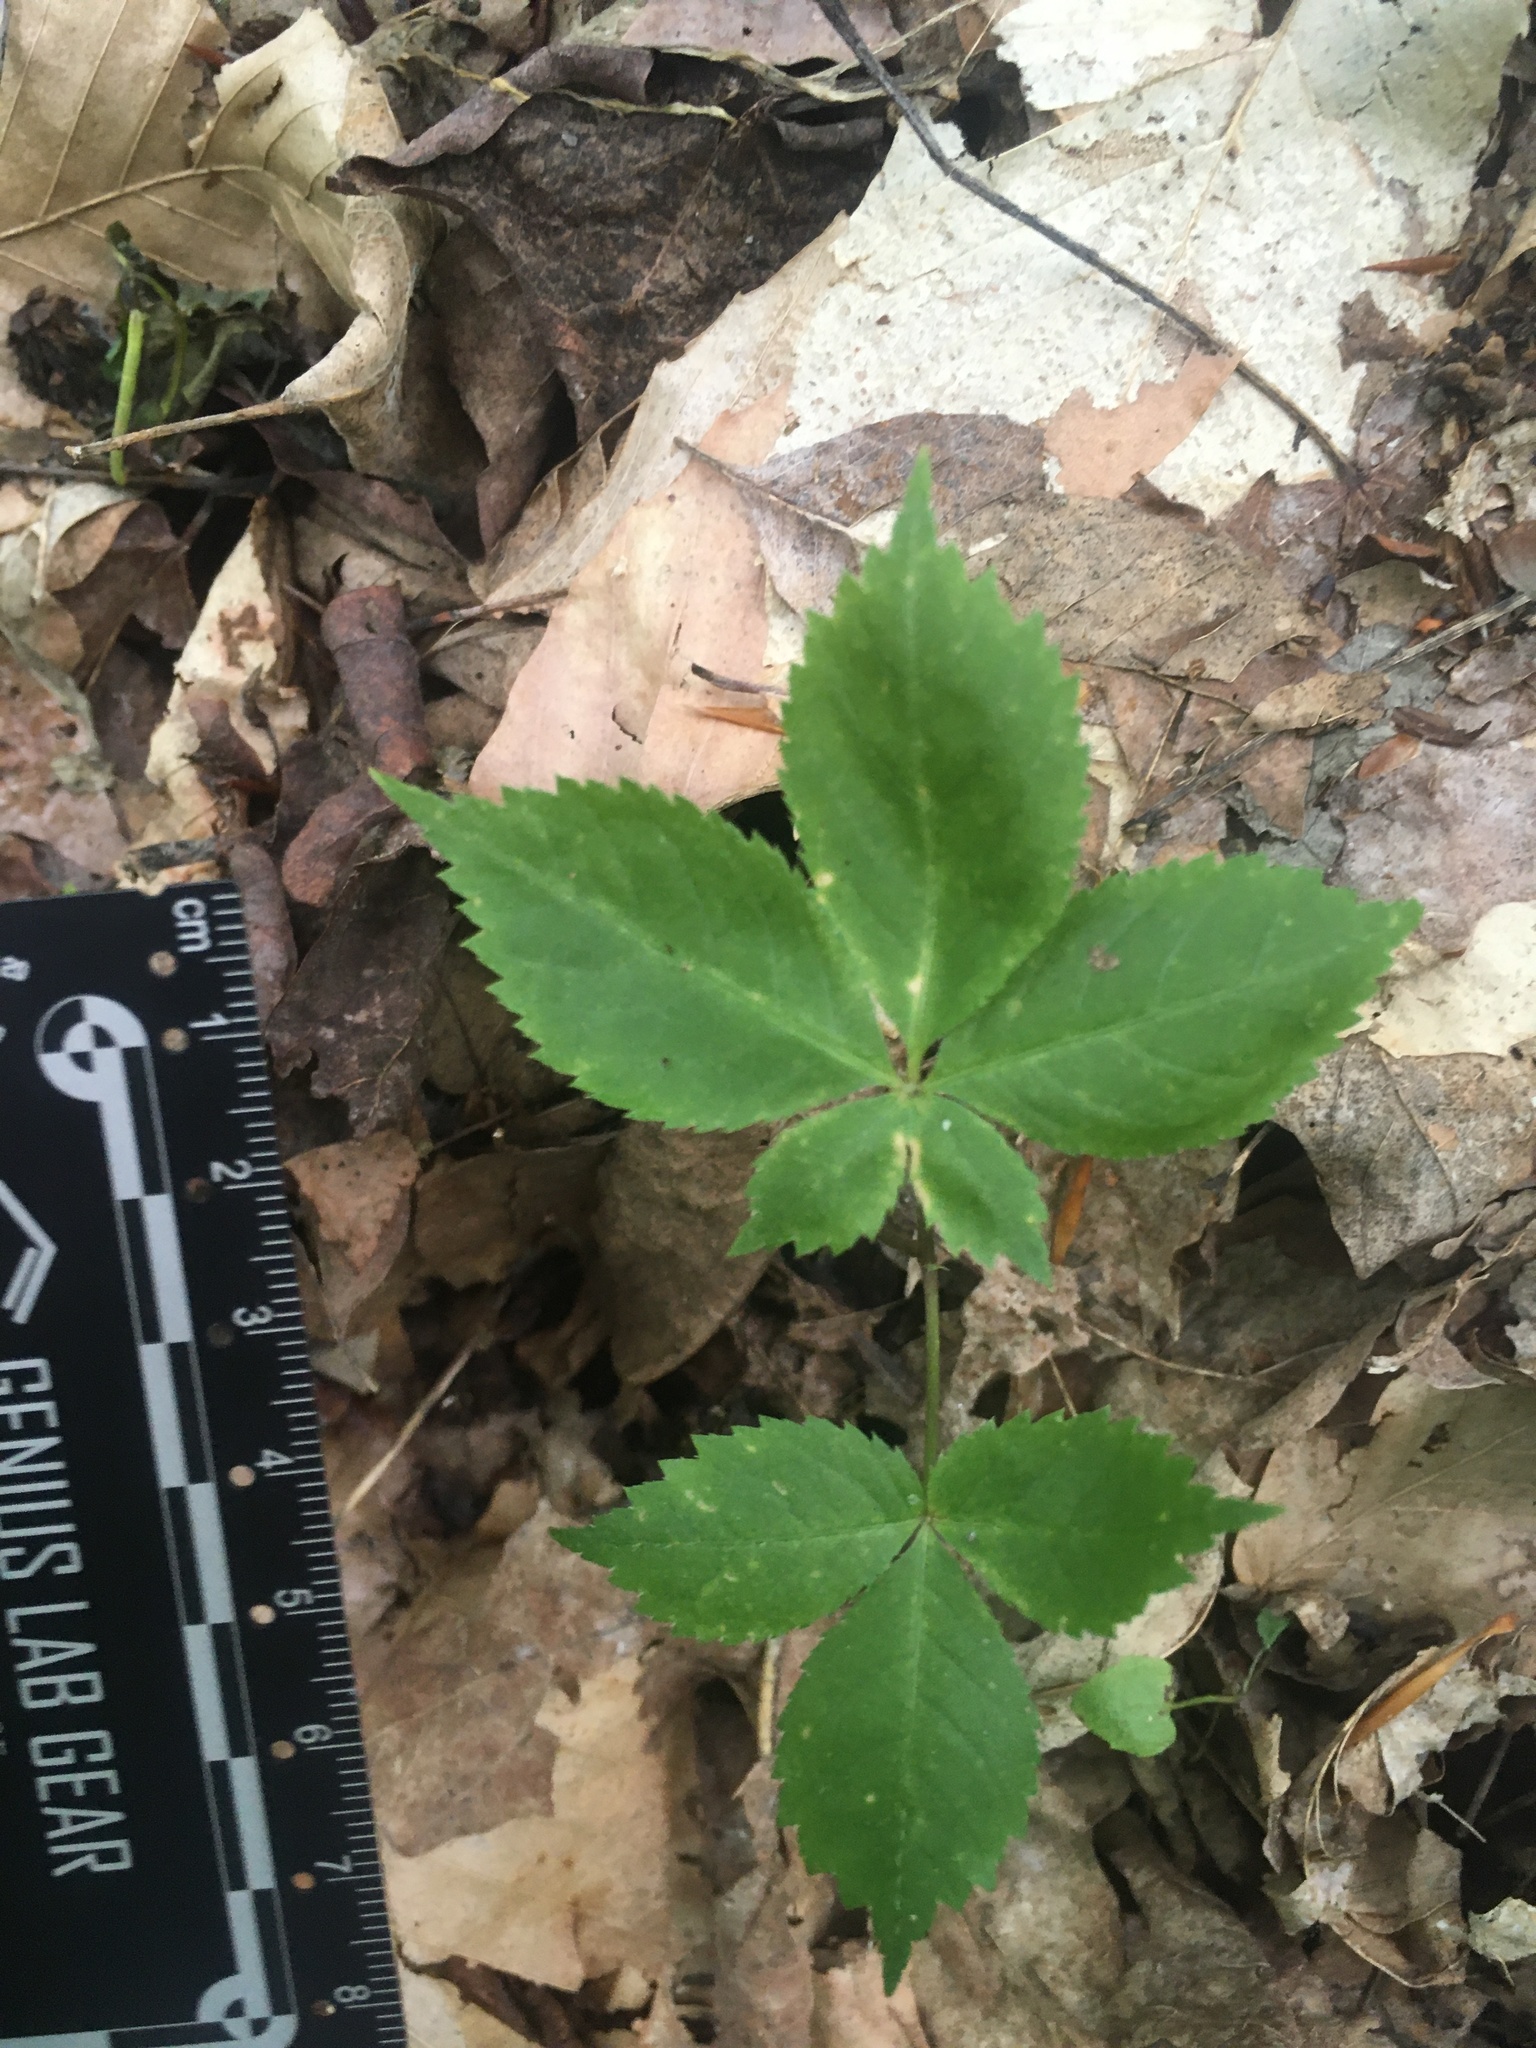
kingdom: Plantae
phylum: Tracheophyta
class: Magnoliopsida
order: Apiales
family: Araliaceae
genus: Panax
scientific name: Panax quinquefolius
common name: American ginseng
